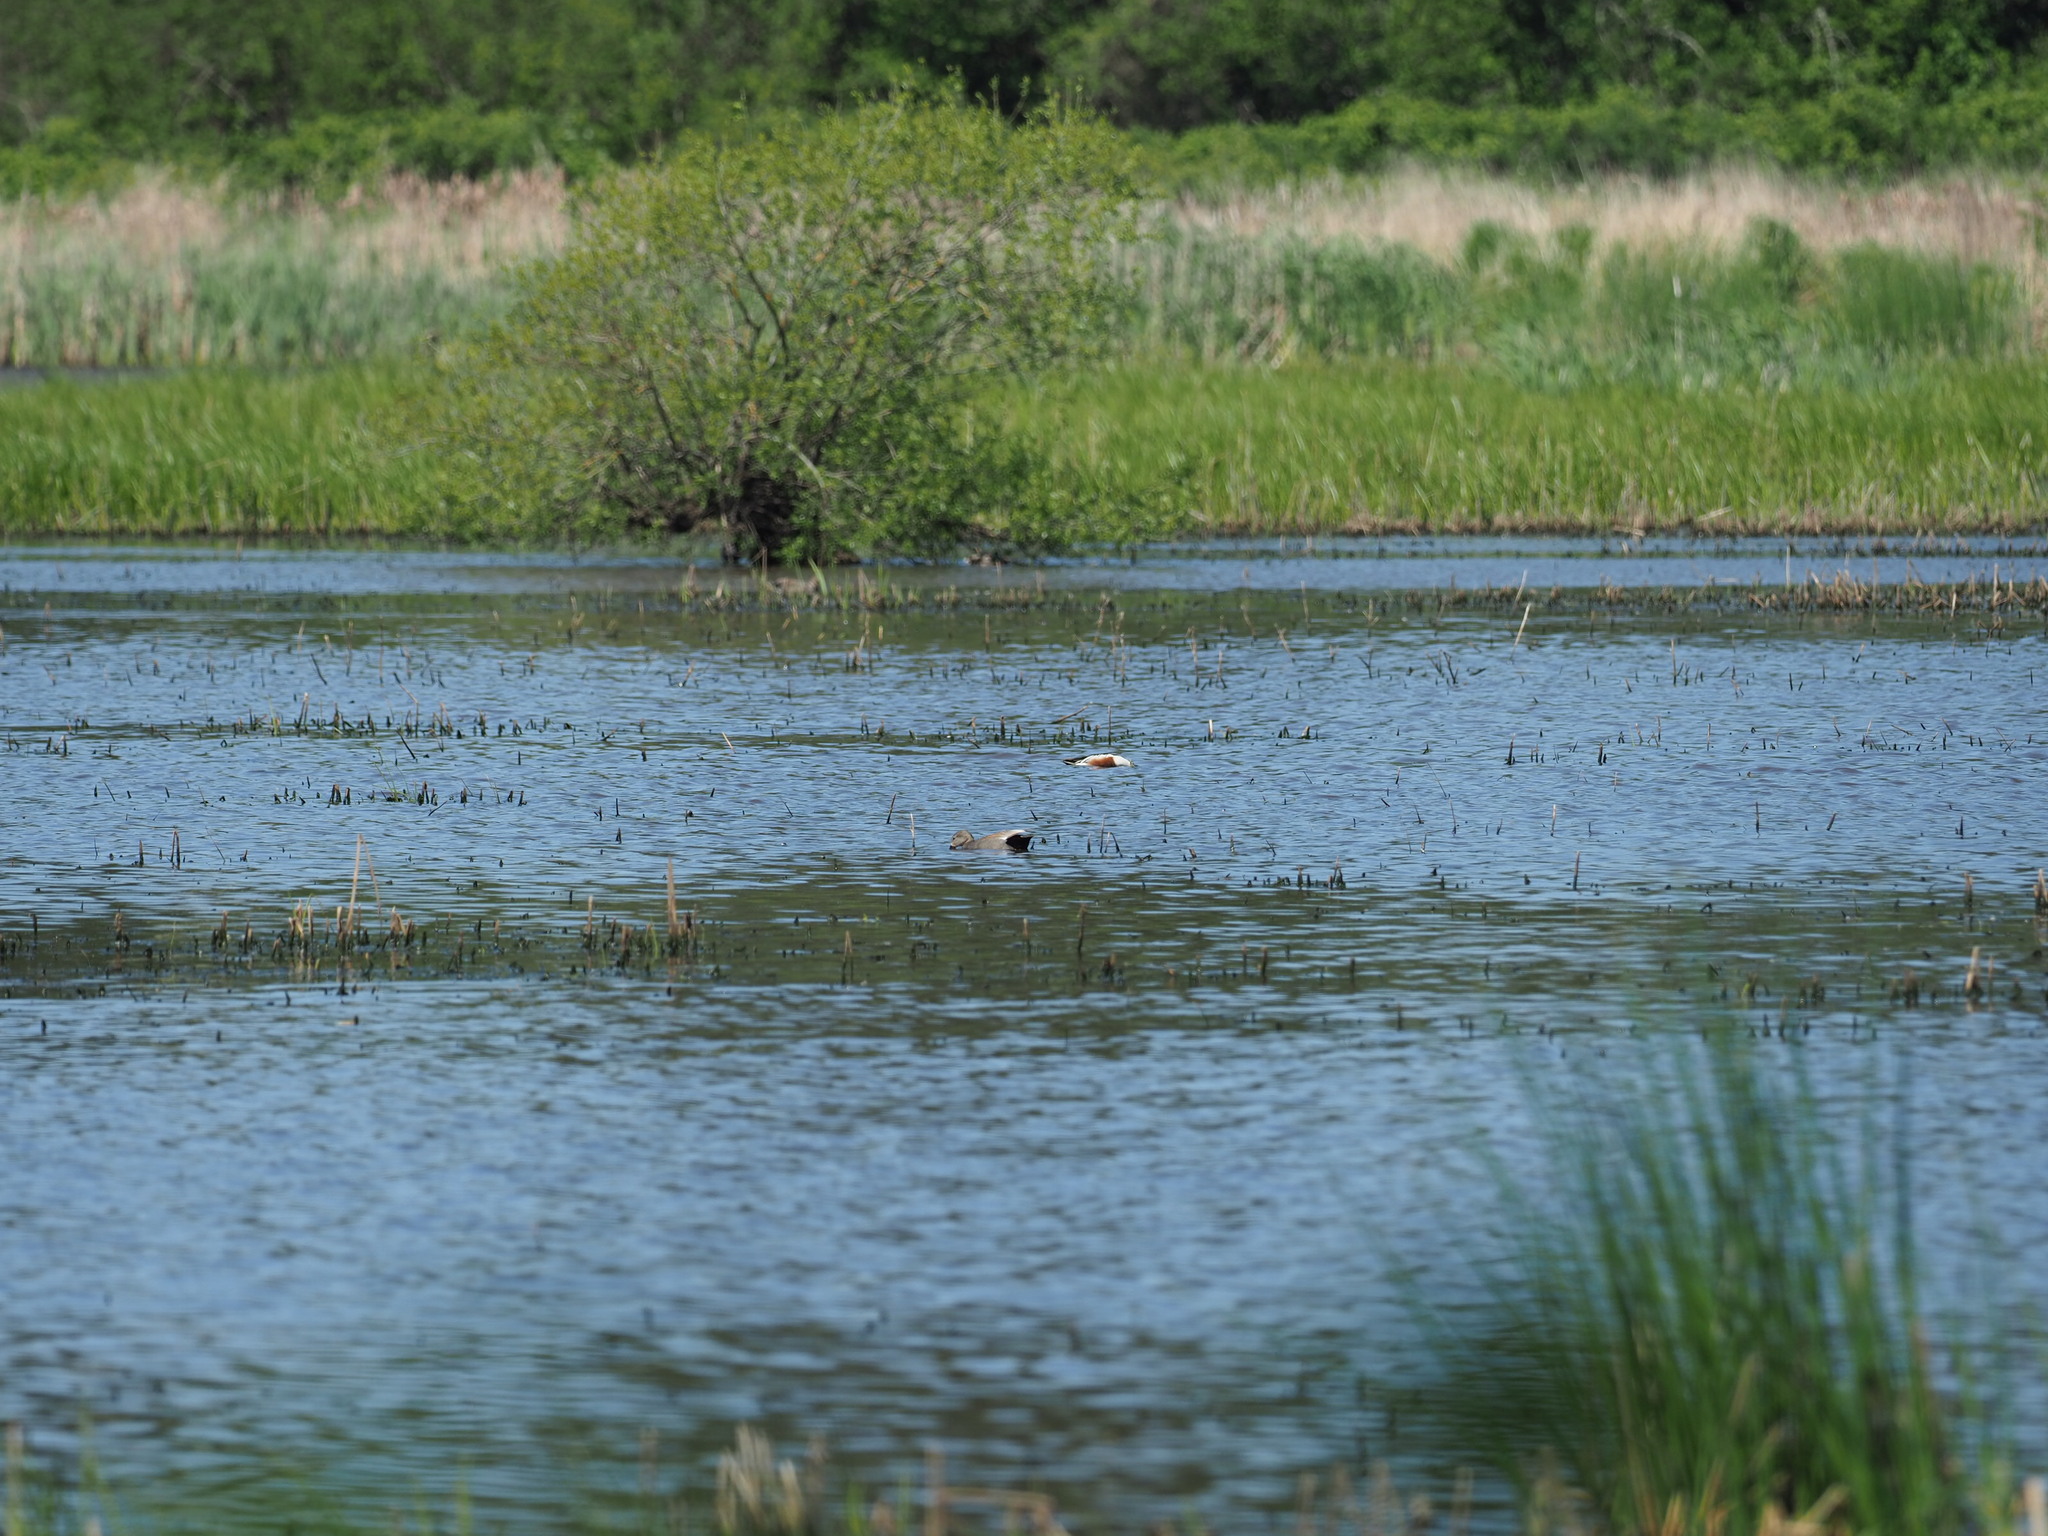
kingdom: Animalia
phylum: Chordata
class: Aves
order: Anseriformes
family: Anatidae
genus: Mareca
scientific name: Mareca strepera
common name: Gadwall
